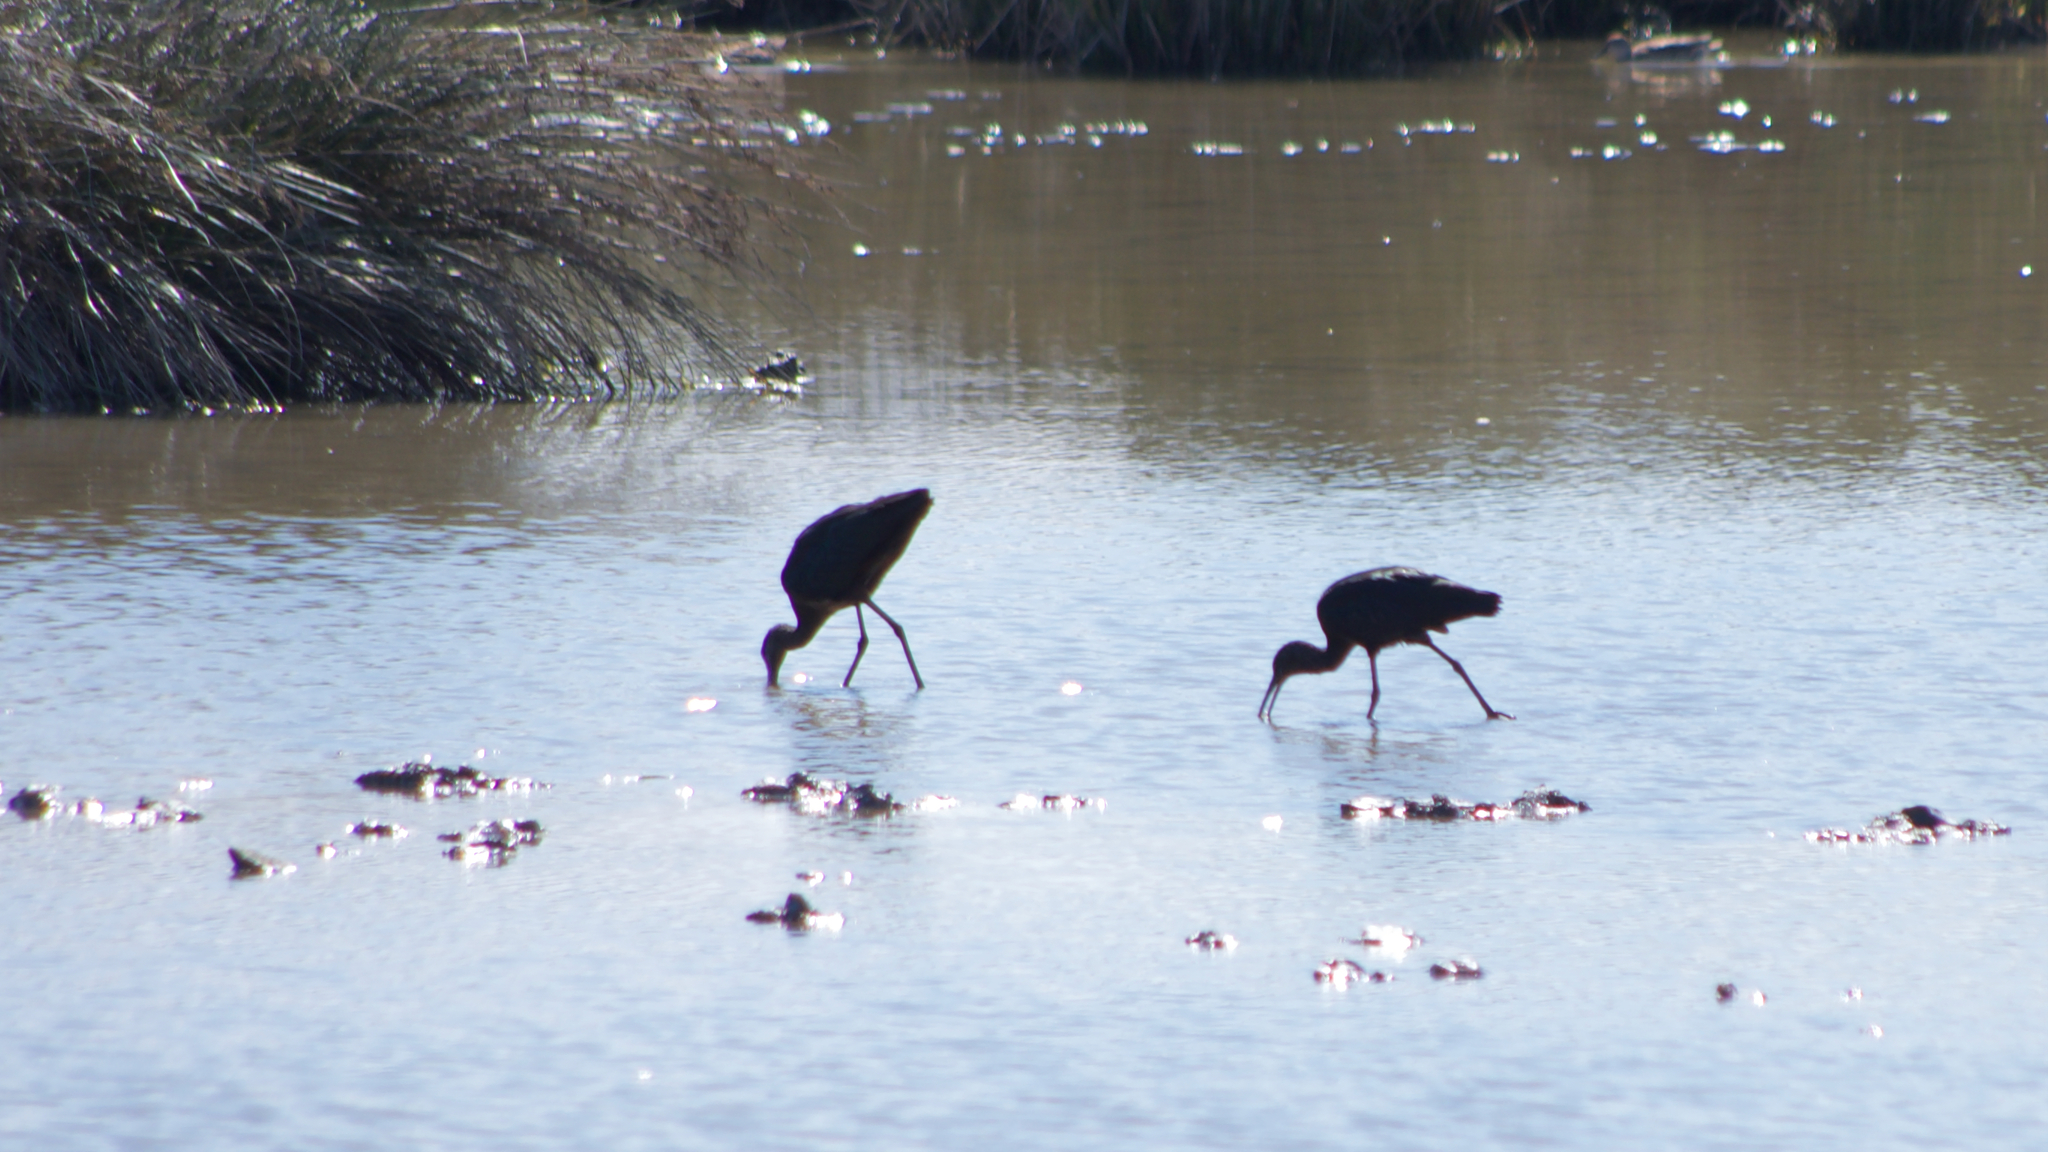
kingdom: Animalia
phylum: Chordata
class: Aves
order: Pelecaniformes
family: Threskiornithidae
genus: Plegadis
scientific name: Plegadis falcinellus
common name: Glossy ibis
